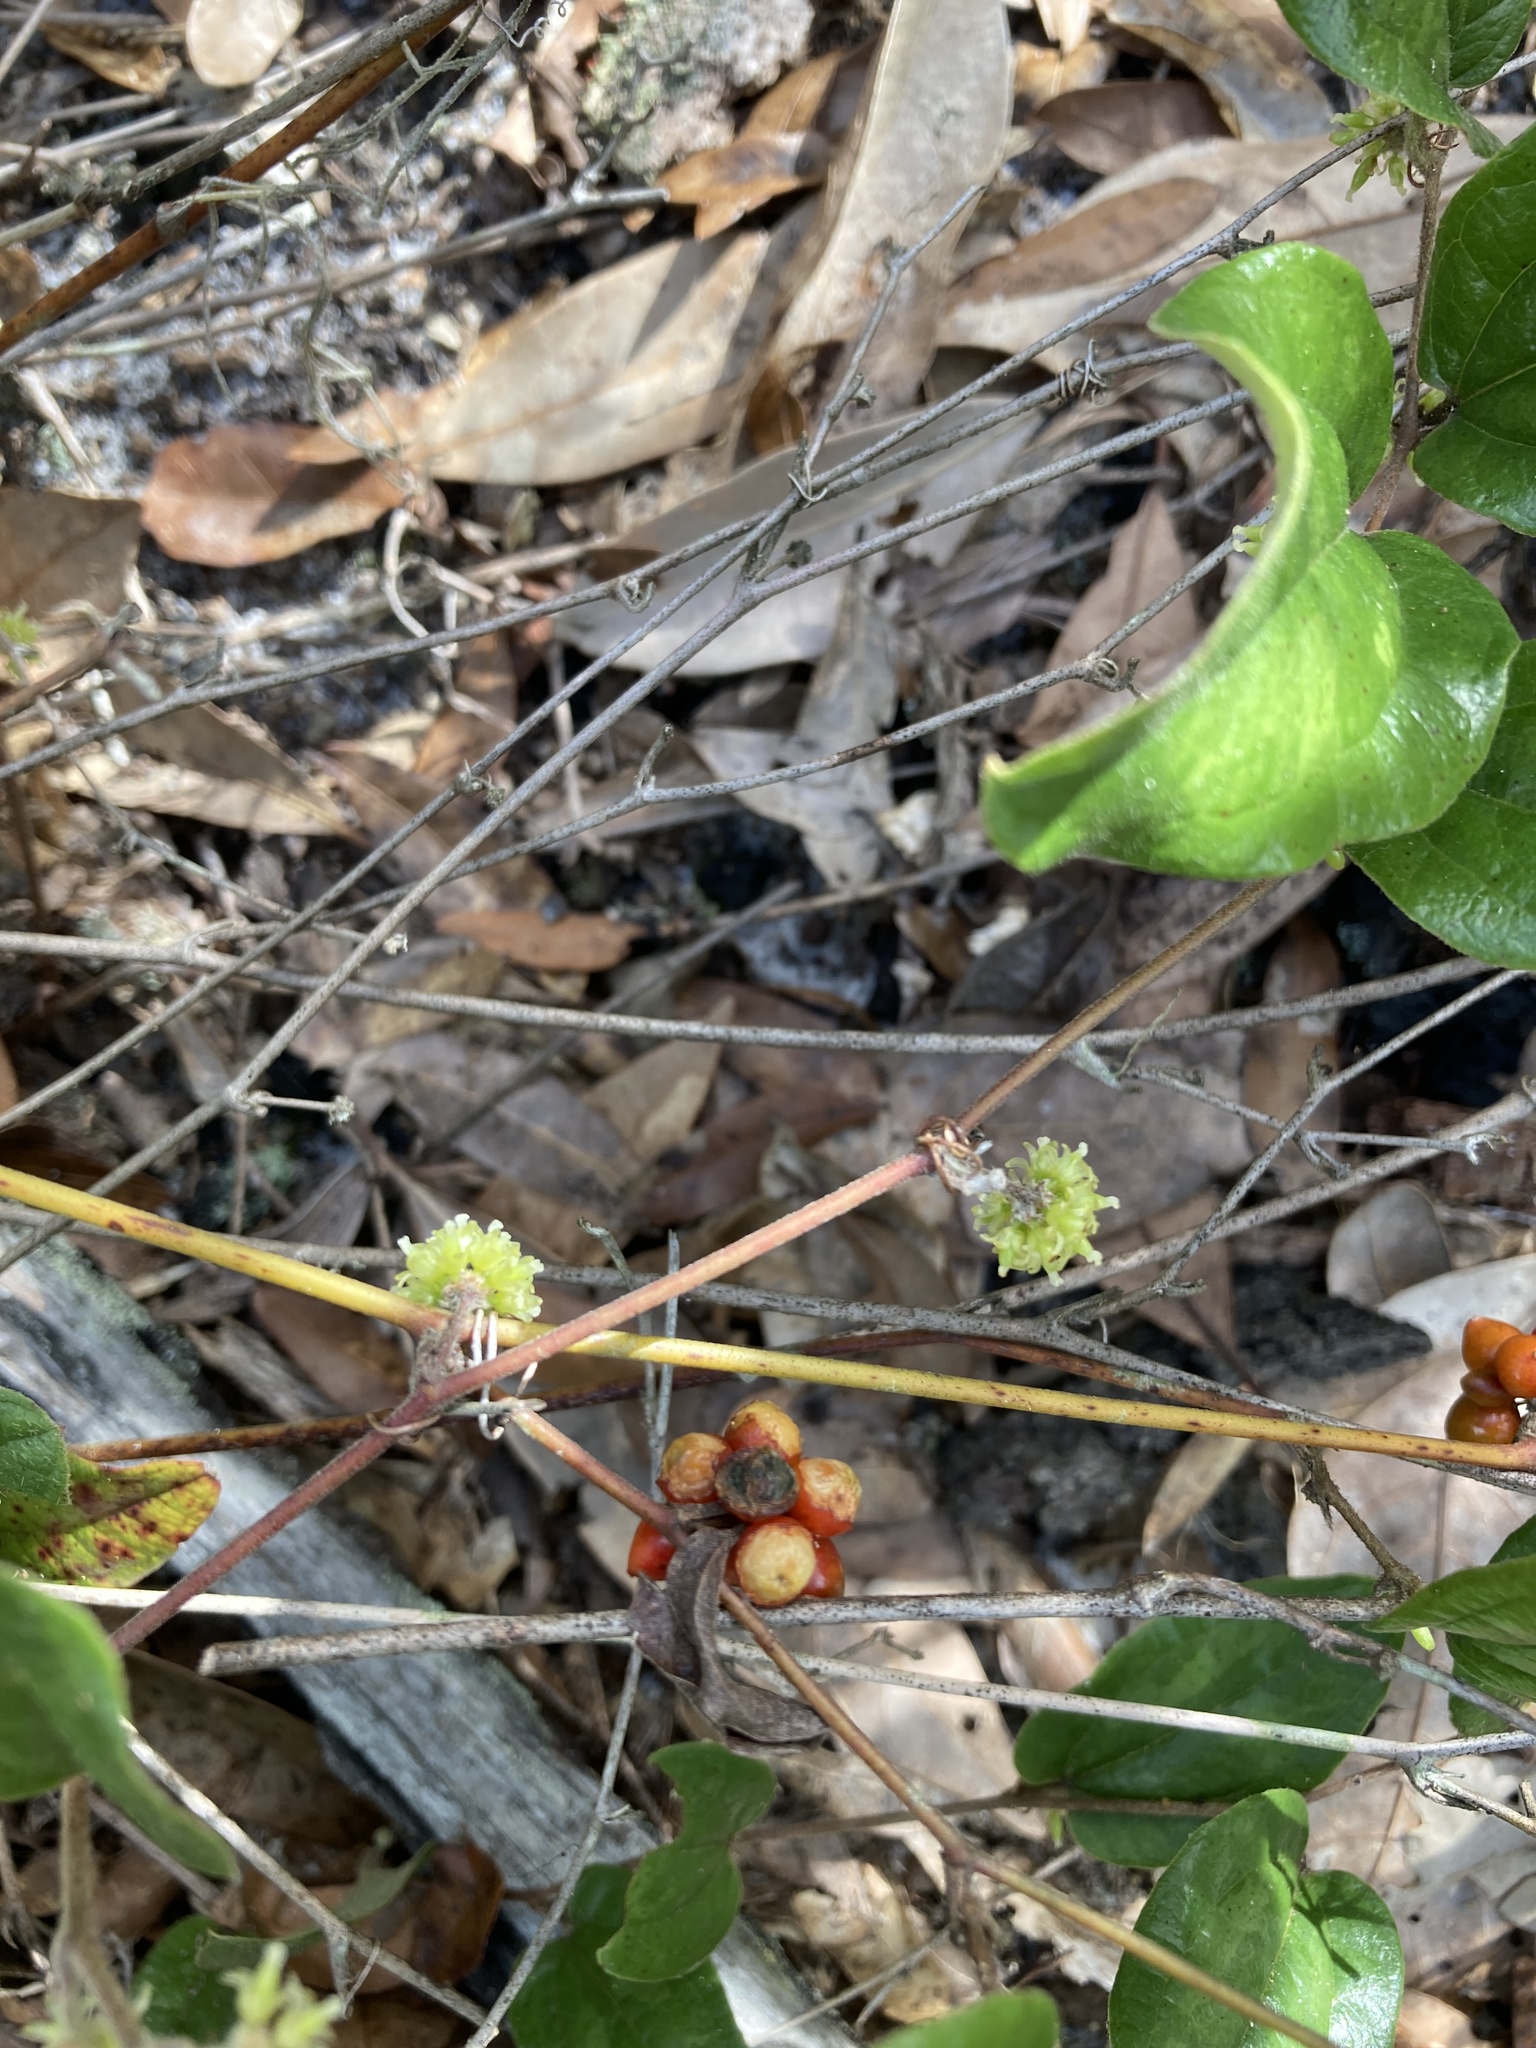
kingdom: Plantae
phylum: Tracheophyta
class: Liliopsida
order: Liliales
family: Smilacaceae
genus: Smilax
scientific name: Smilax pumila
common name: Sarsaparilla-vine
